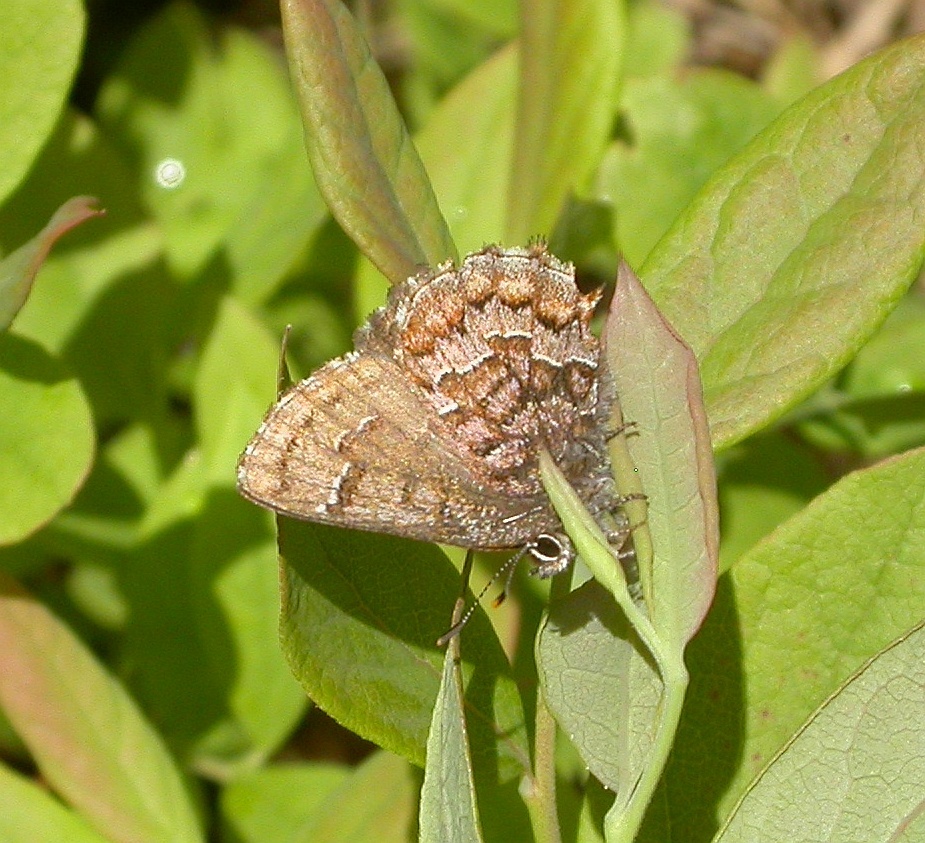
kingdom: Animalia
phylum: Arthropoda
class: Insecta
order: Lepidoptera
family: Lycaenidae
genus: Incisalia
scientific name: Incisalia niphon
